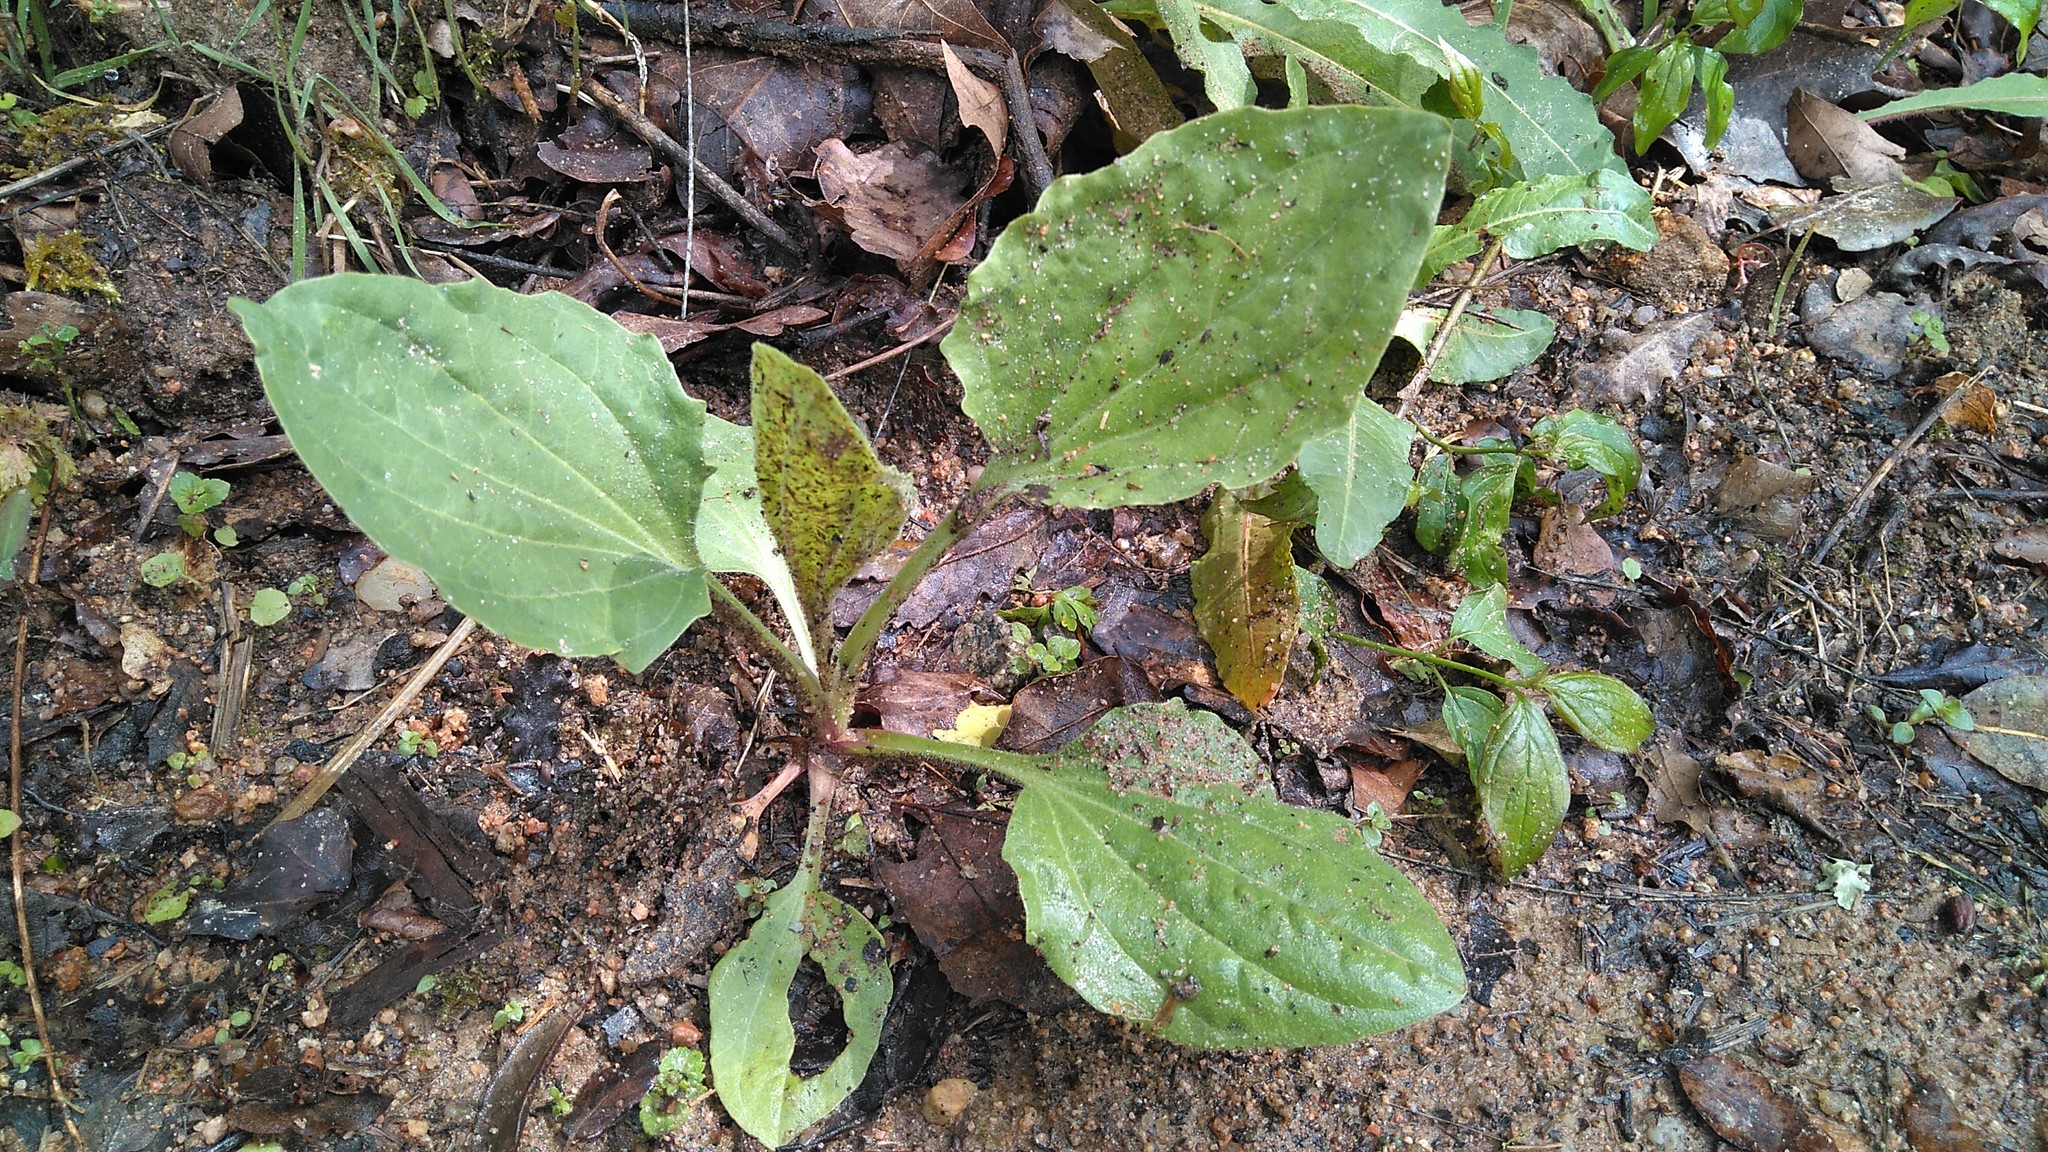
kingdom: Plantae
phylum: Tracheophyta
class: Magnoliopsida
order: Lamiales
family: Plantaginaceae
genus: Plantago
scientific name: Plantago major
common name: Common plantain
